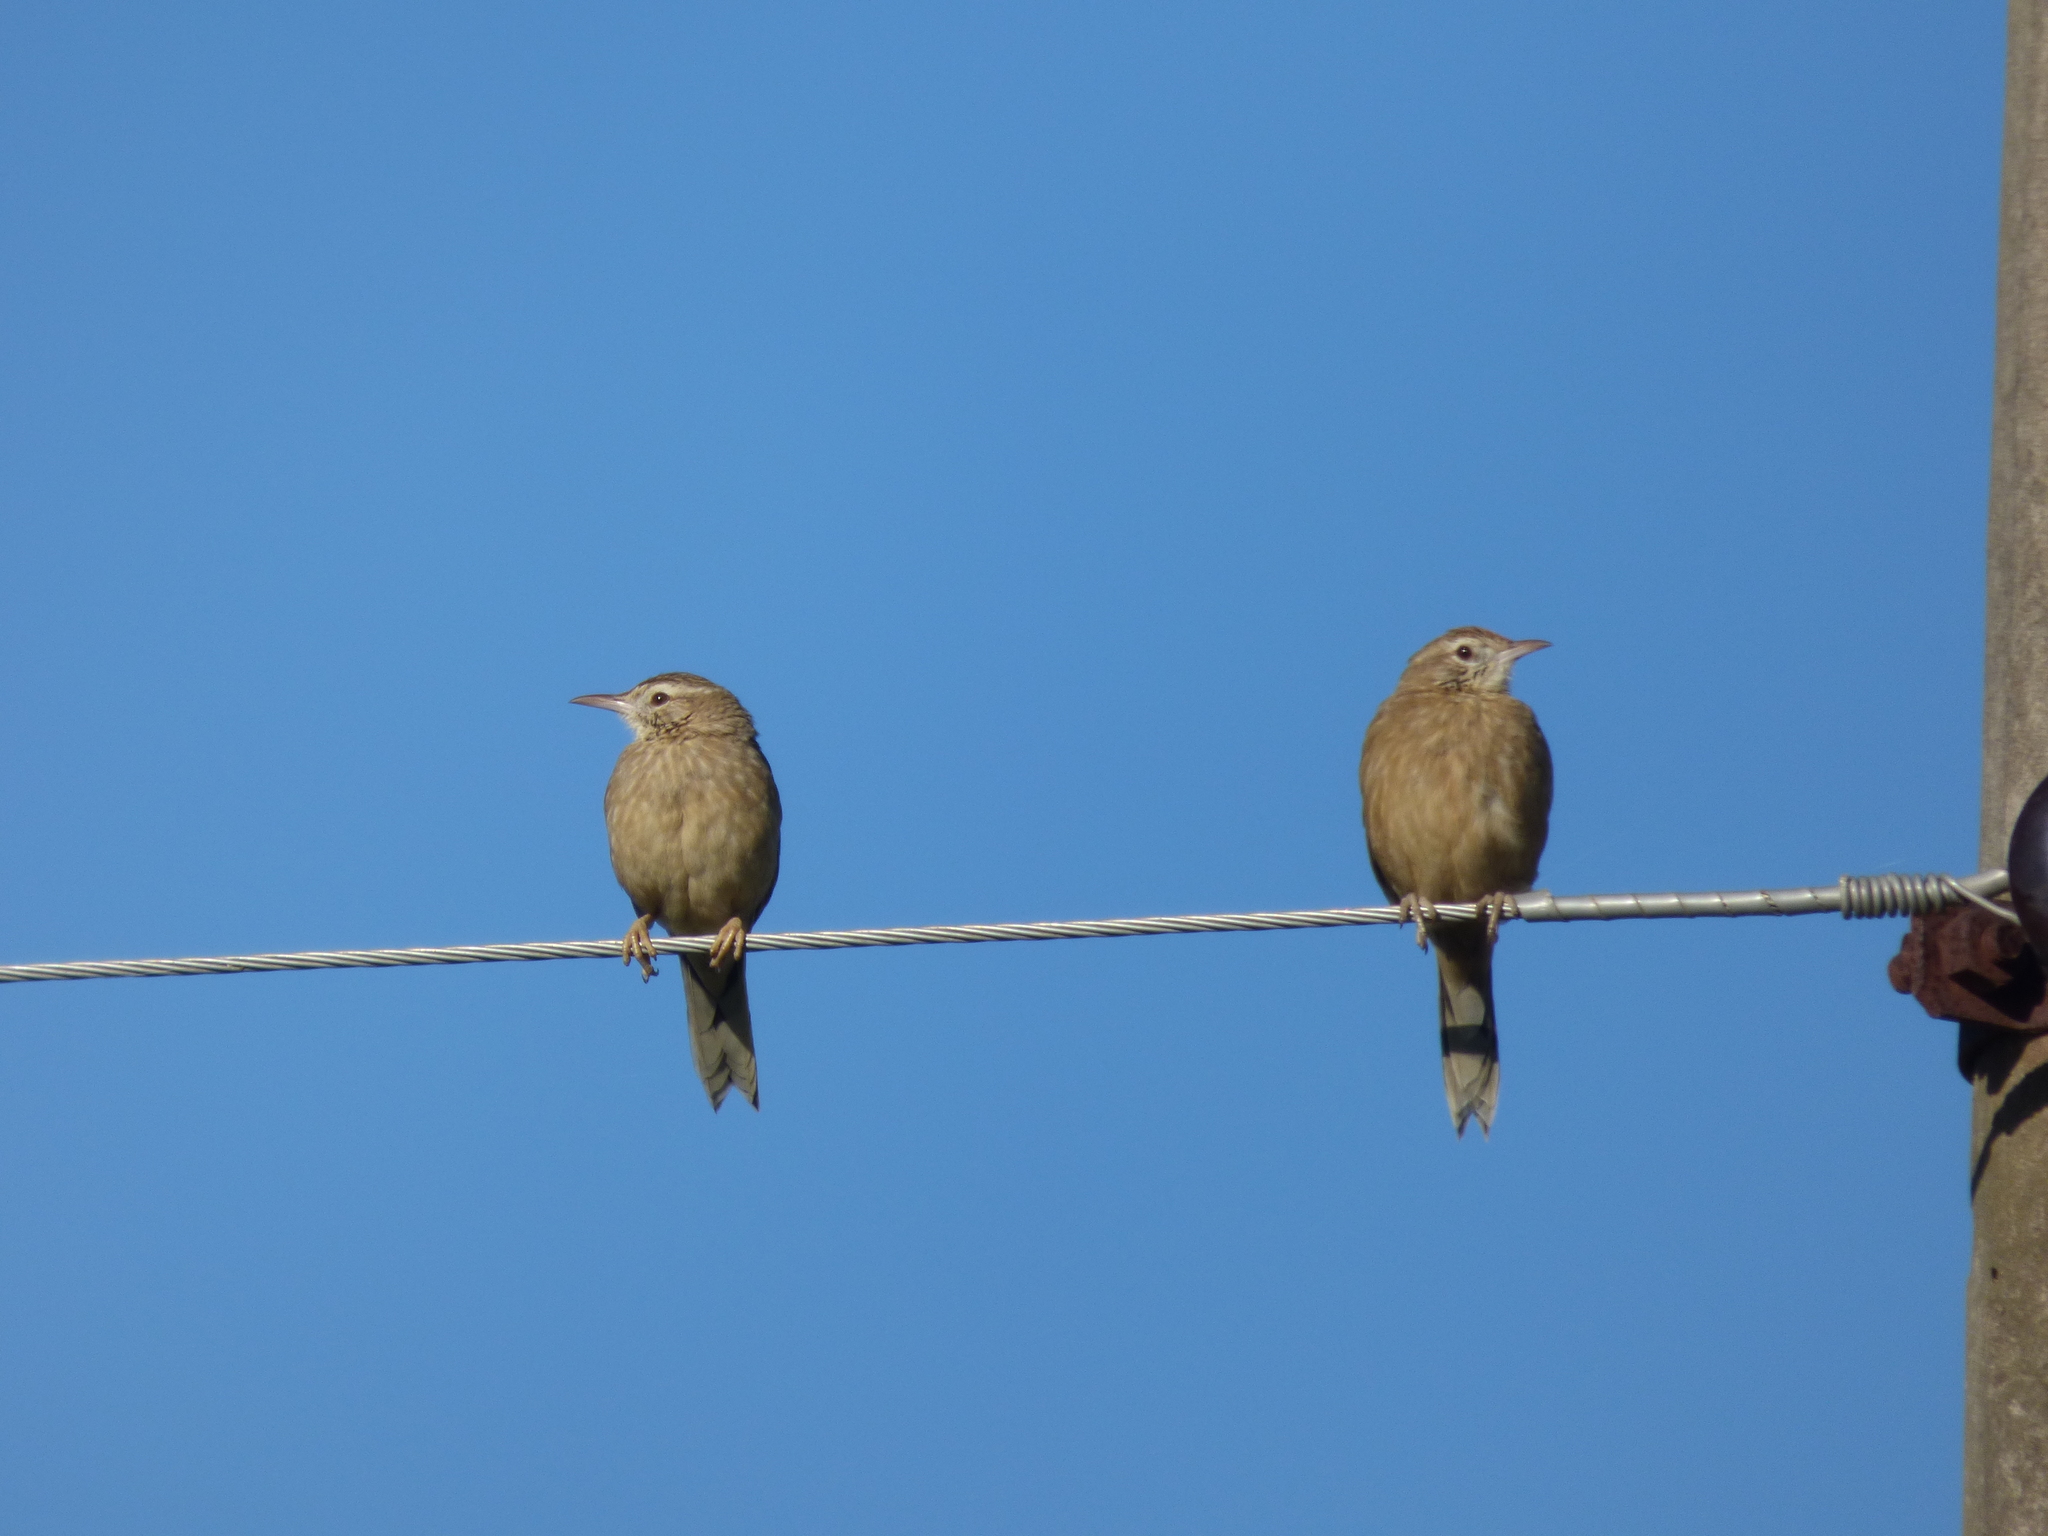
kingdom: Animalia
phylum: Chordata
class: Aves
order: Passeriformes
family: Furnariidae
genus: Anumbius
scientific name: Anumbius annumbi
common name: Firewood-gatherer
